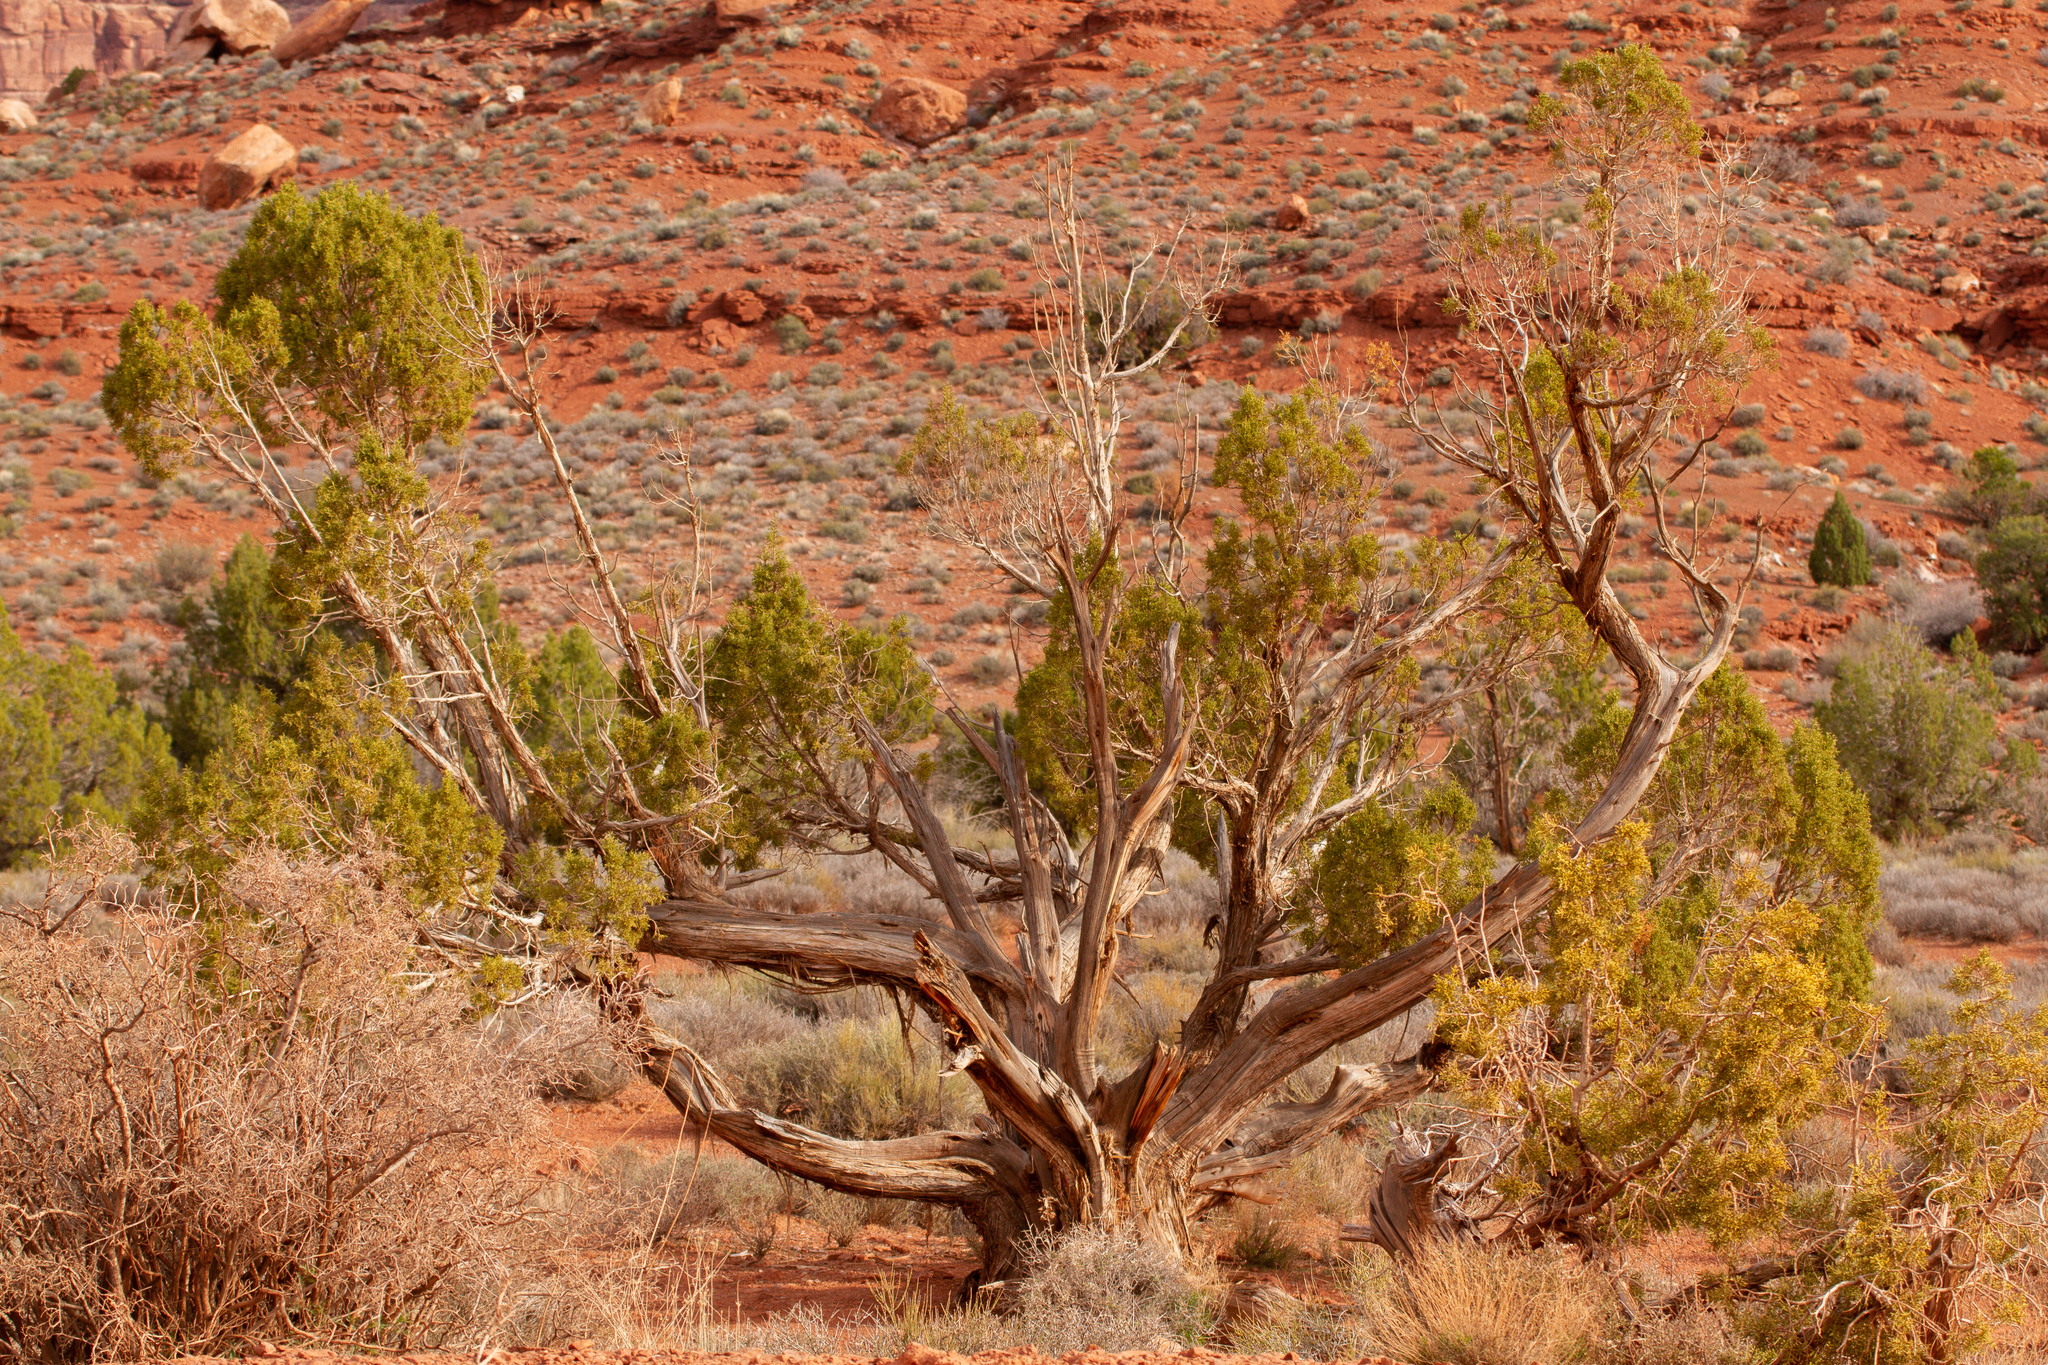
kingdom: Plantae
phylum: Tracheophyta
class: Pinopsida
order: Pinales
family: Cupressaceae
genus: Juniperus
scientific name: Juniperus osteosperma
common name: Utah juniper
